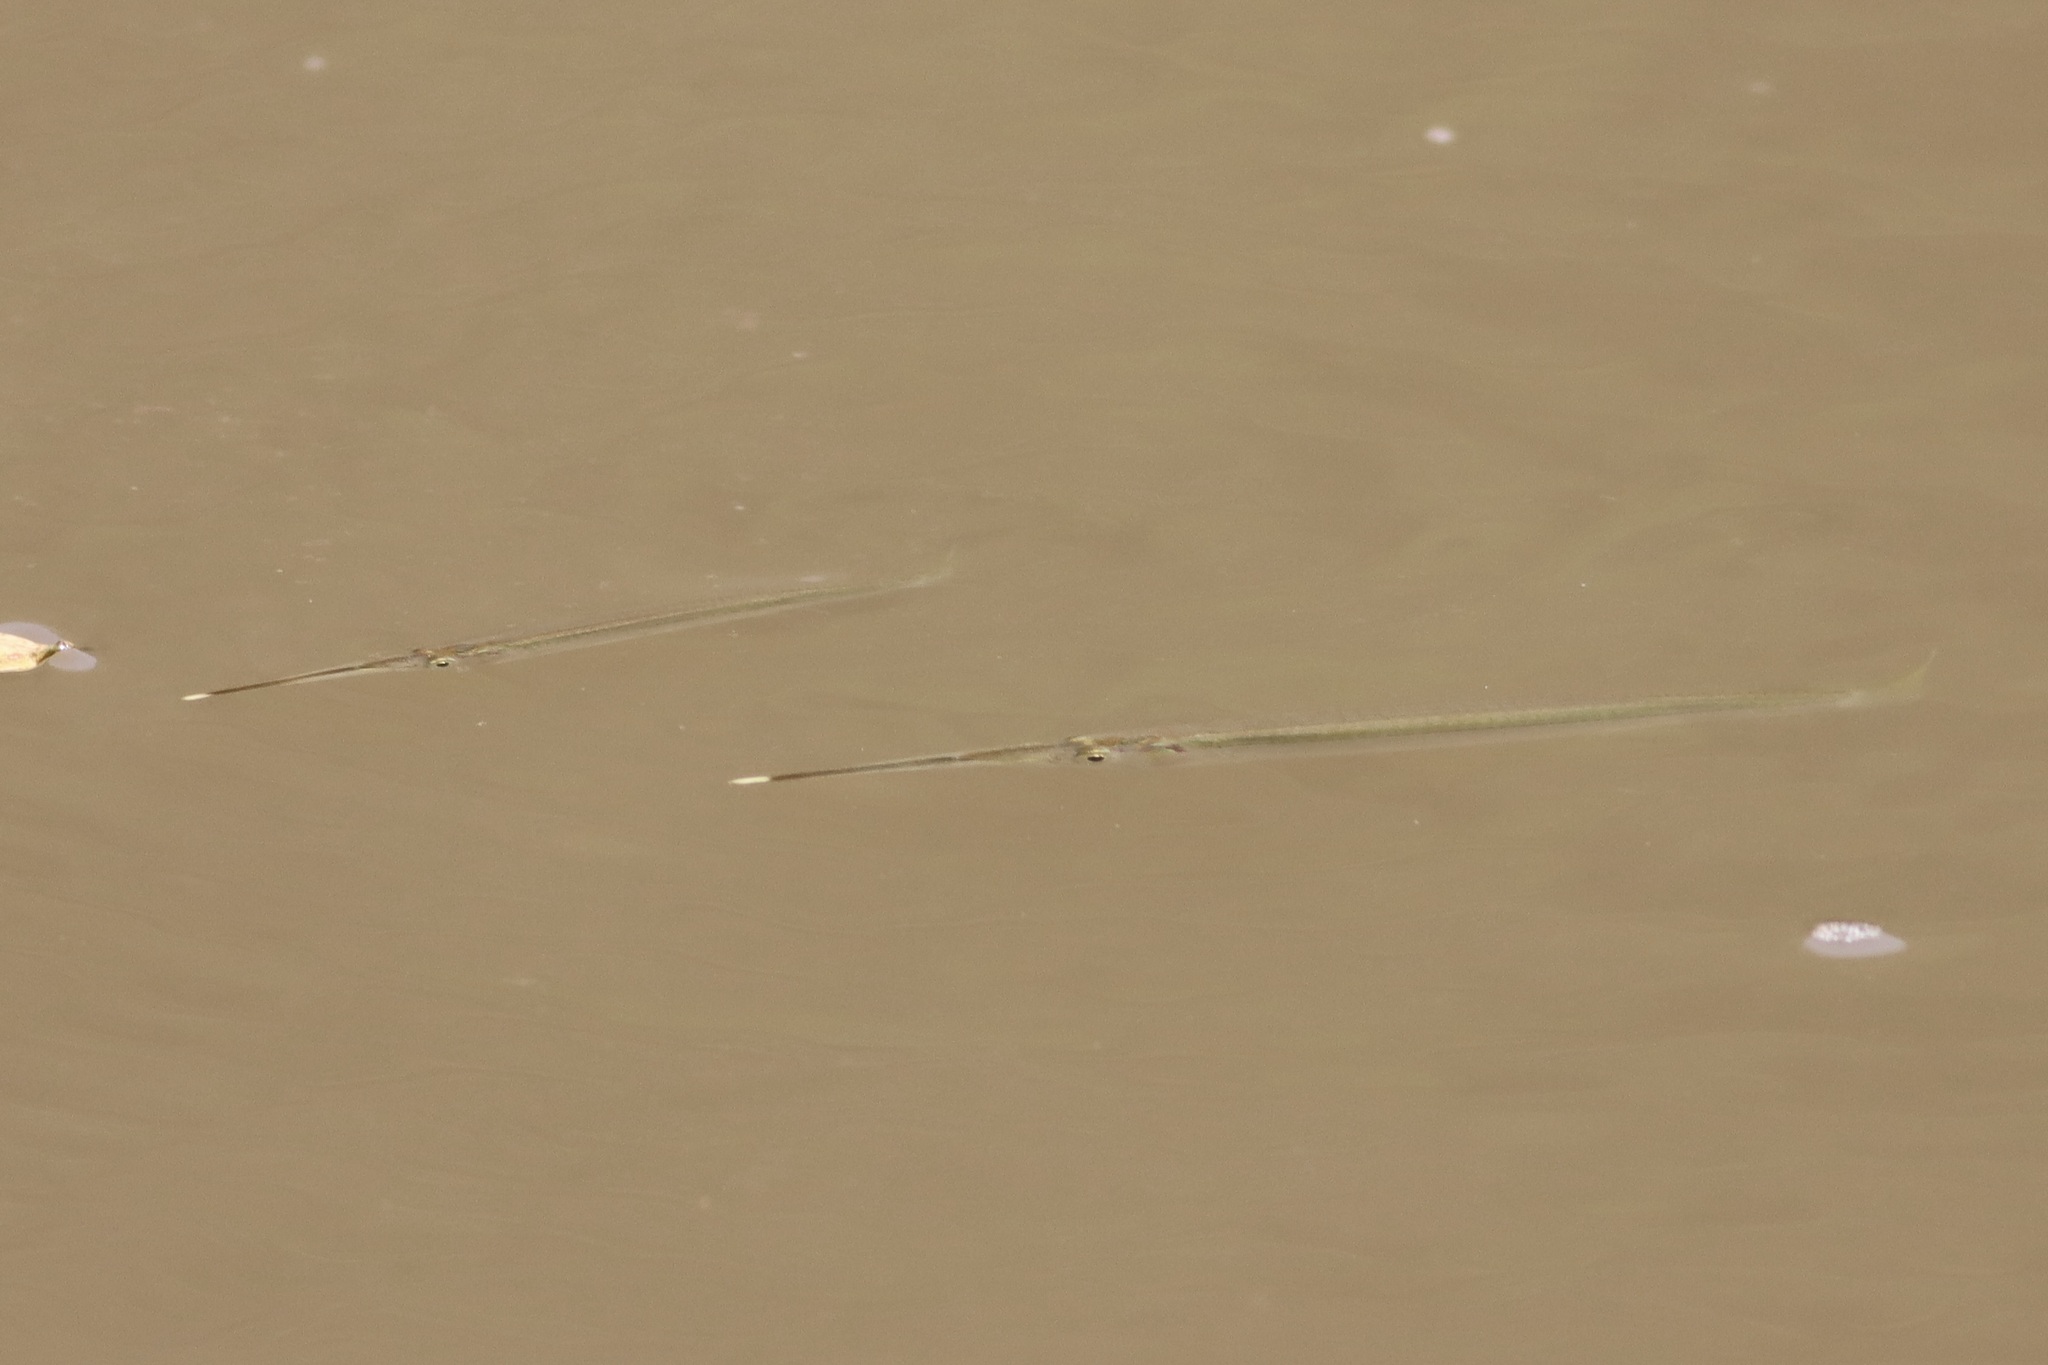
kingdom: Animalia
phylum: Chordata
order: Beloniformes
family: Zenarchopteridae
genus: Zenarchopterus
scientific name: Zenarchopterus buffonis
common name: Buffon's river-garfish
